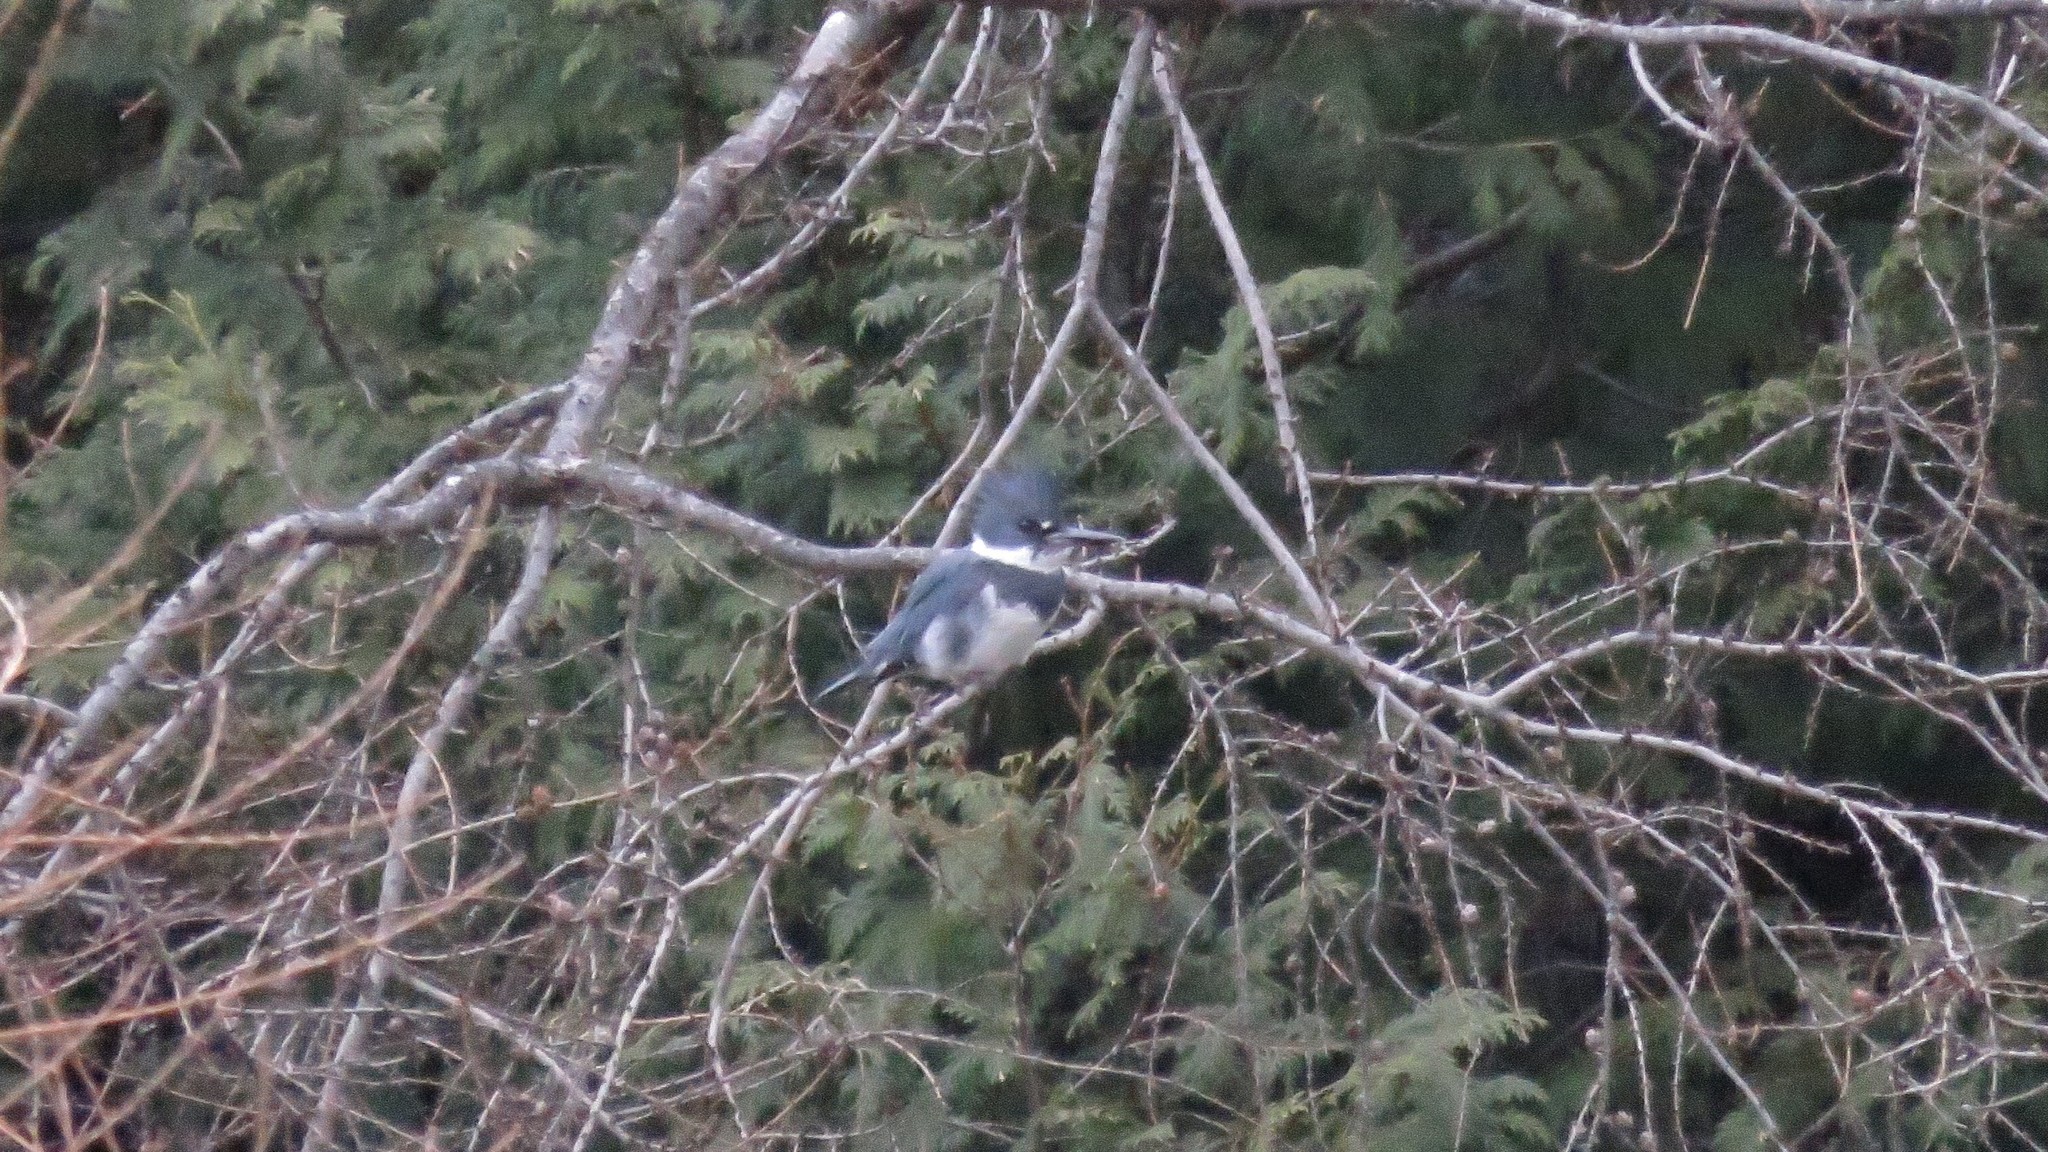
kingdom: Animalia
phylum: Chordata
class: Aves
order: Coraciiformes
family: Alcedinidae
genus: Megaceryle
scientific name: Megaceryle alcyon
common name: Belted kingfisher
